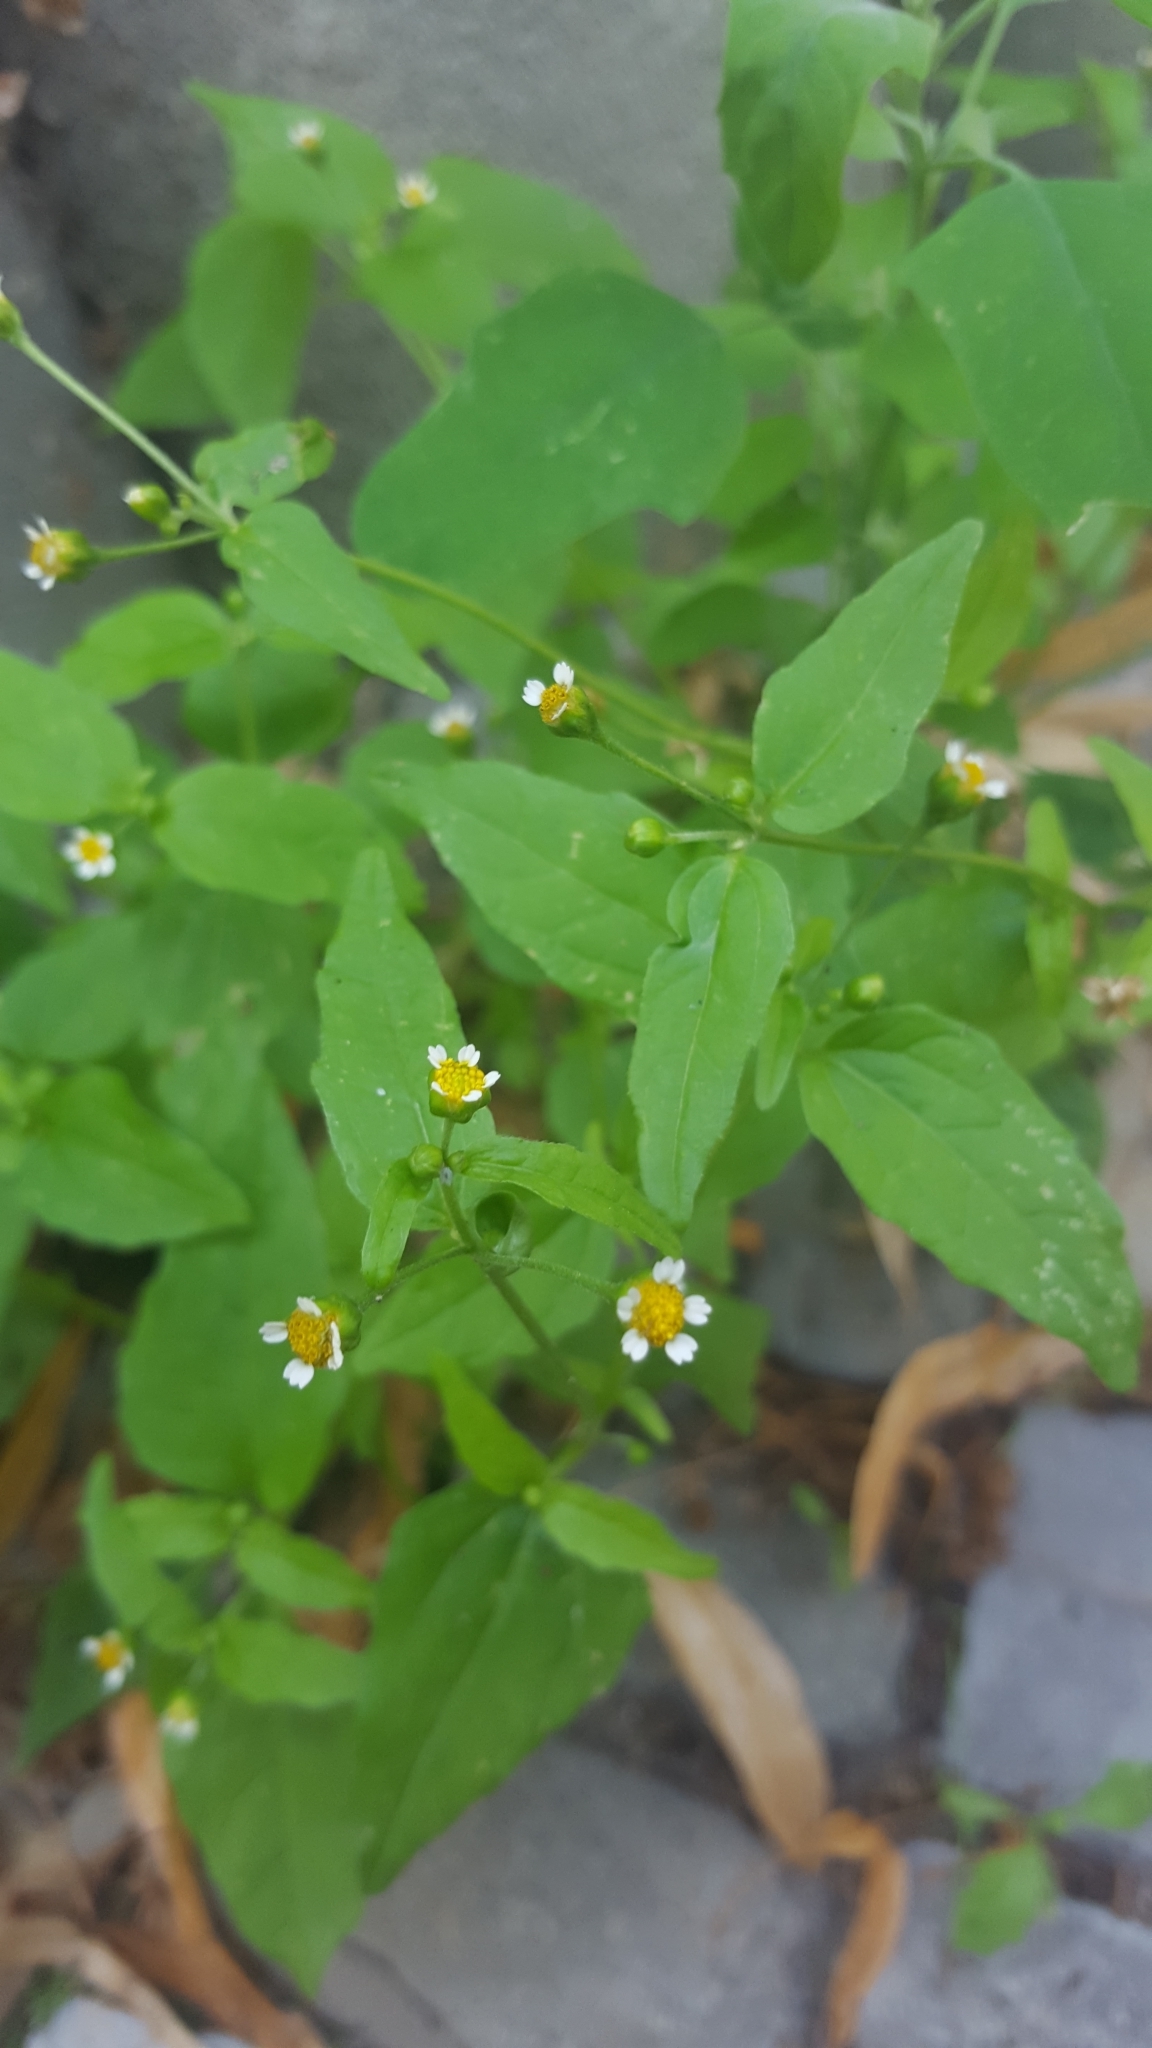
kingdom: Plantae
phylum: Tracheophyta
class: Magnoliopsida
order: Asterales
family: Asteraceae
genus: Galinsoga
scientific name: Galinsoga parviflora
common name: Gallant soldier
